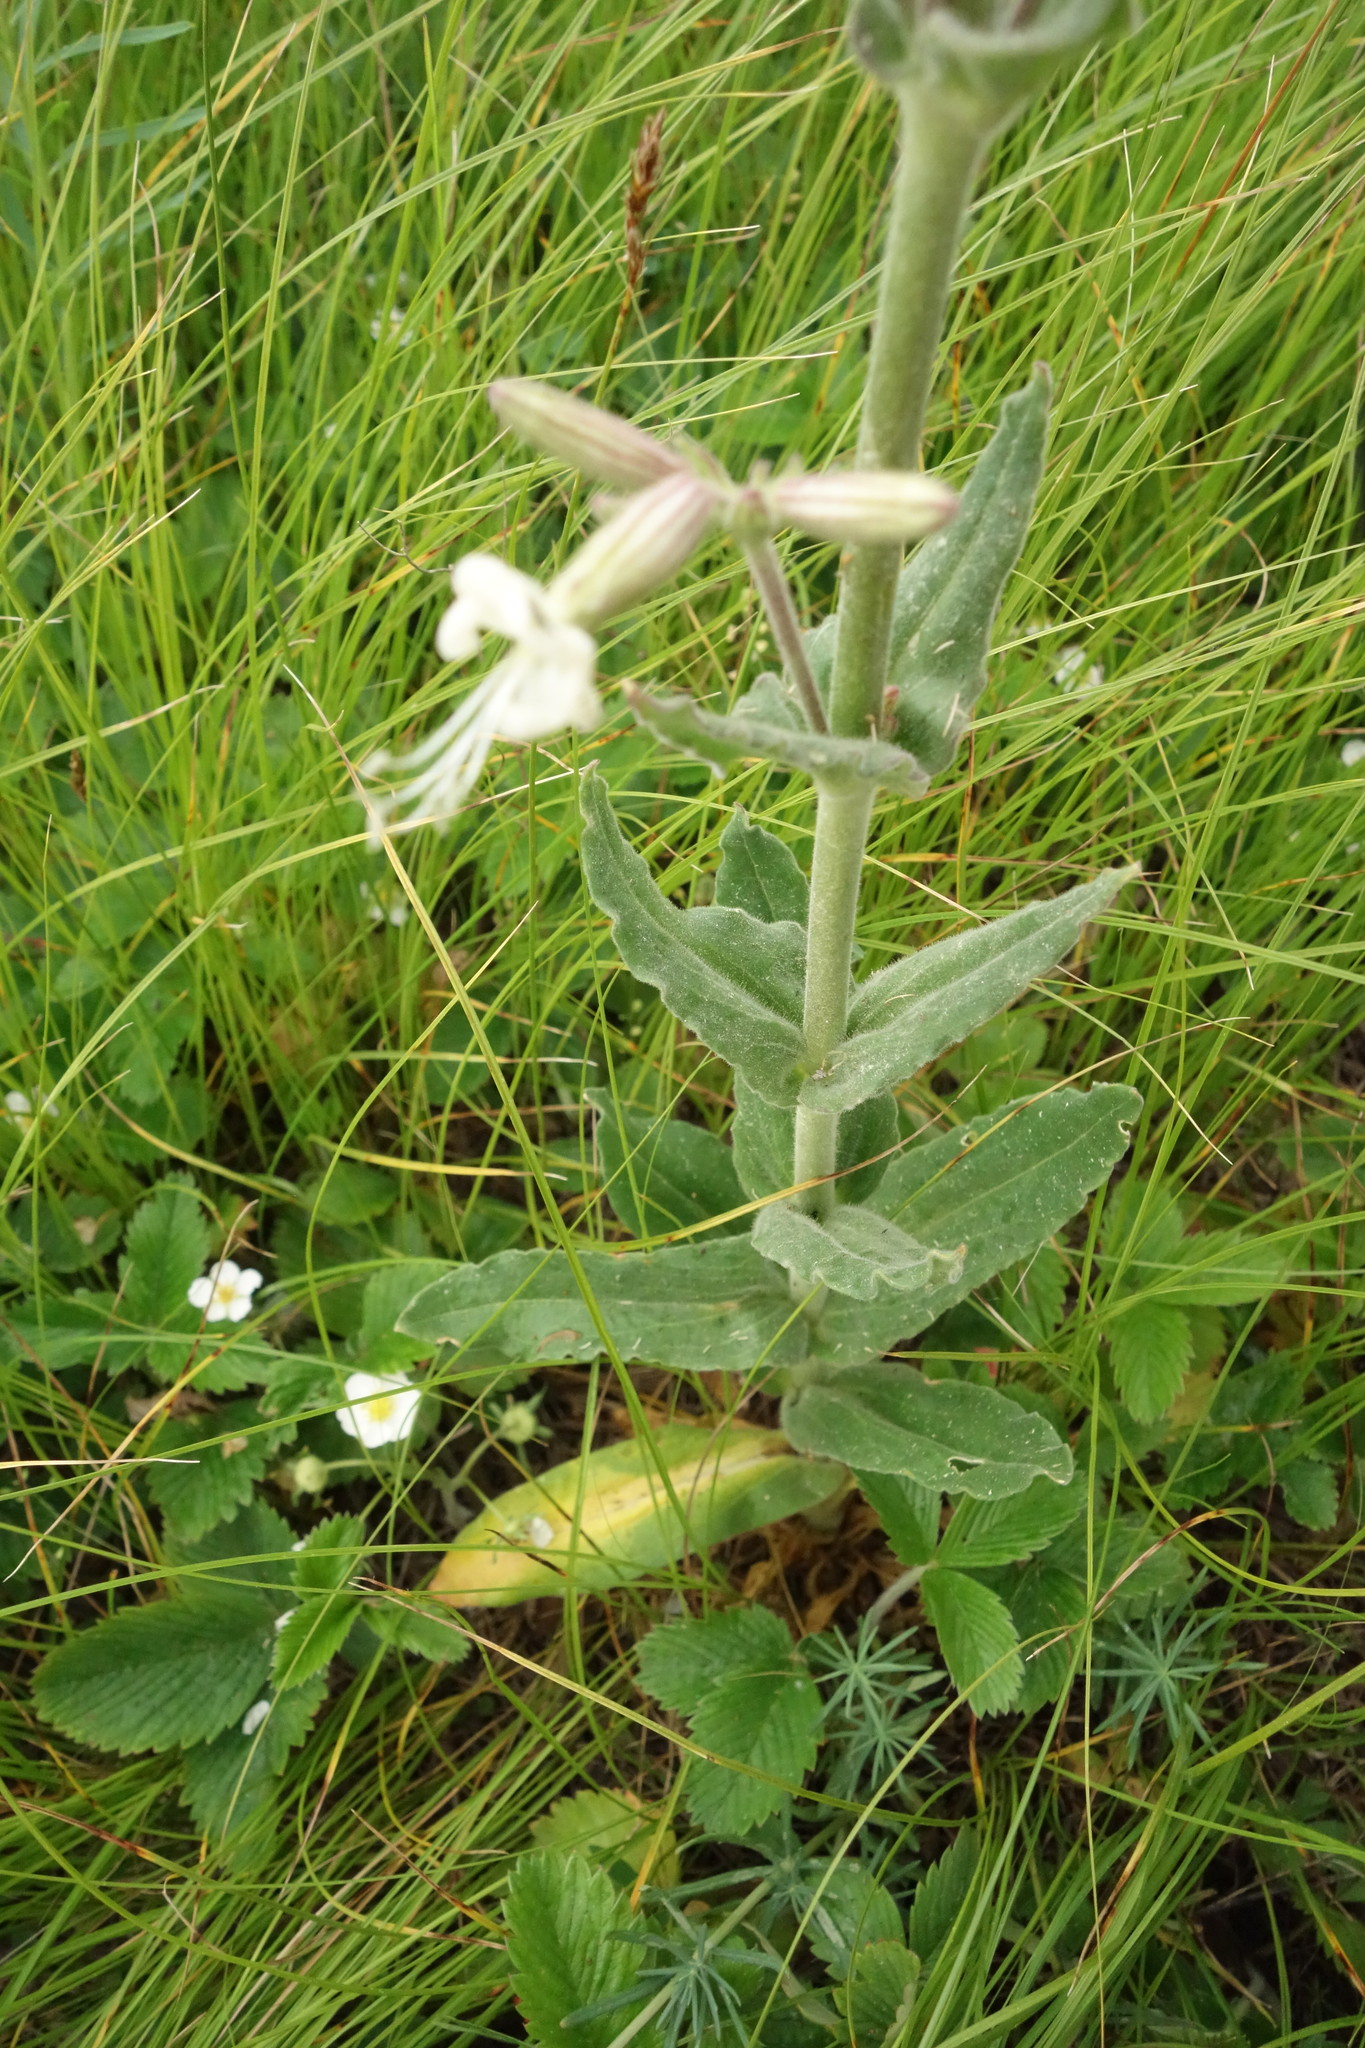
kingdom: Plantae
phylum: Tracheophyta
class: Magnoliopsida
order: Caryophyllales
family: Caryophyllaceae
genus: Silene
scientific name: Silene viscosa
